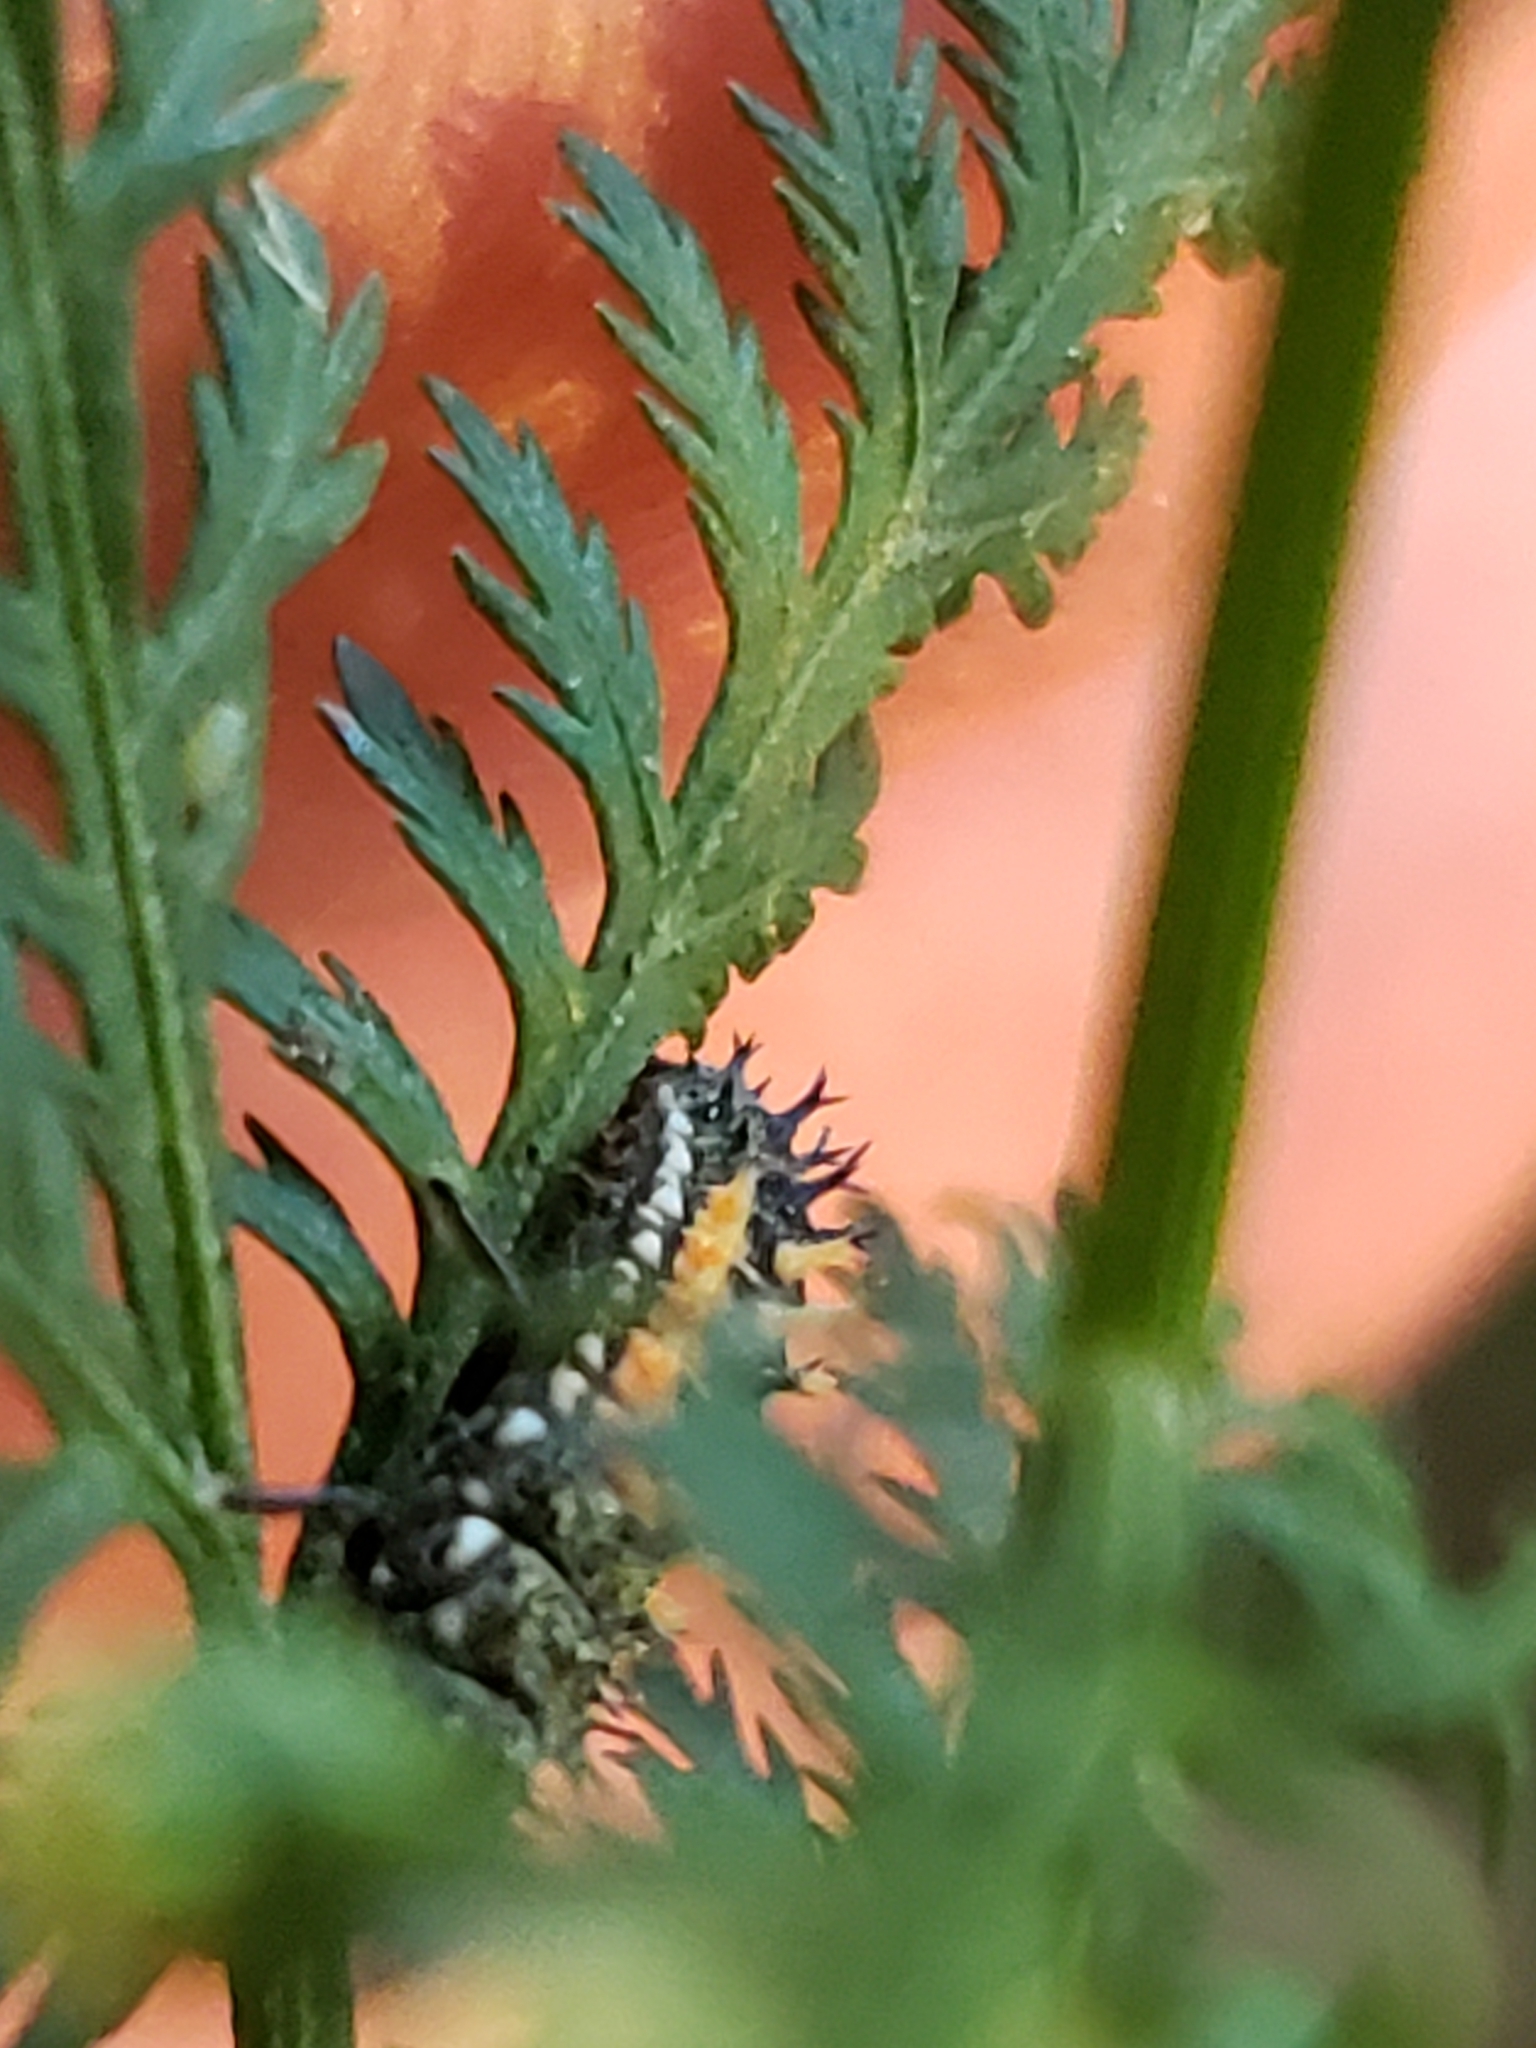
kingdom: Animalia
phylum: Arthropoda
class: Insecta
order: Coleoptera
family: Coccinellidae
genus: Harmonia
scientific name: Harmonia axyridis
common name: Harlequin ladybird
